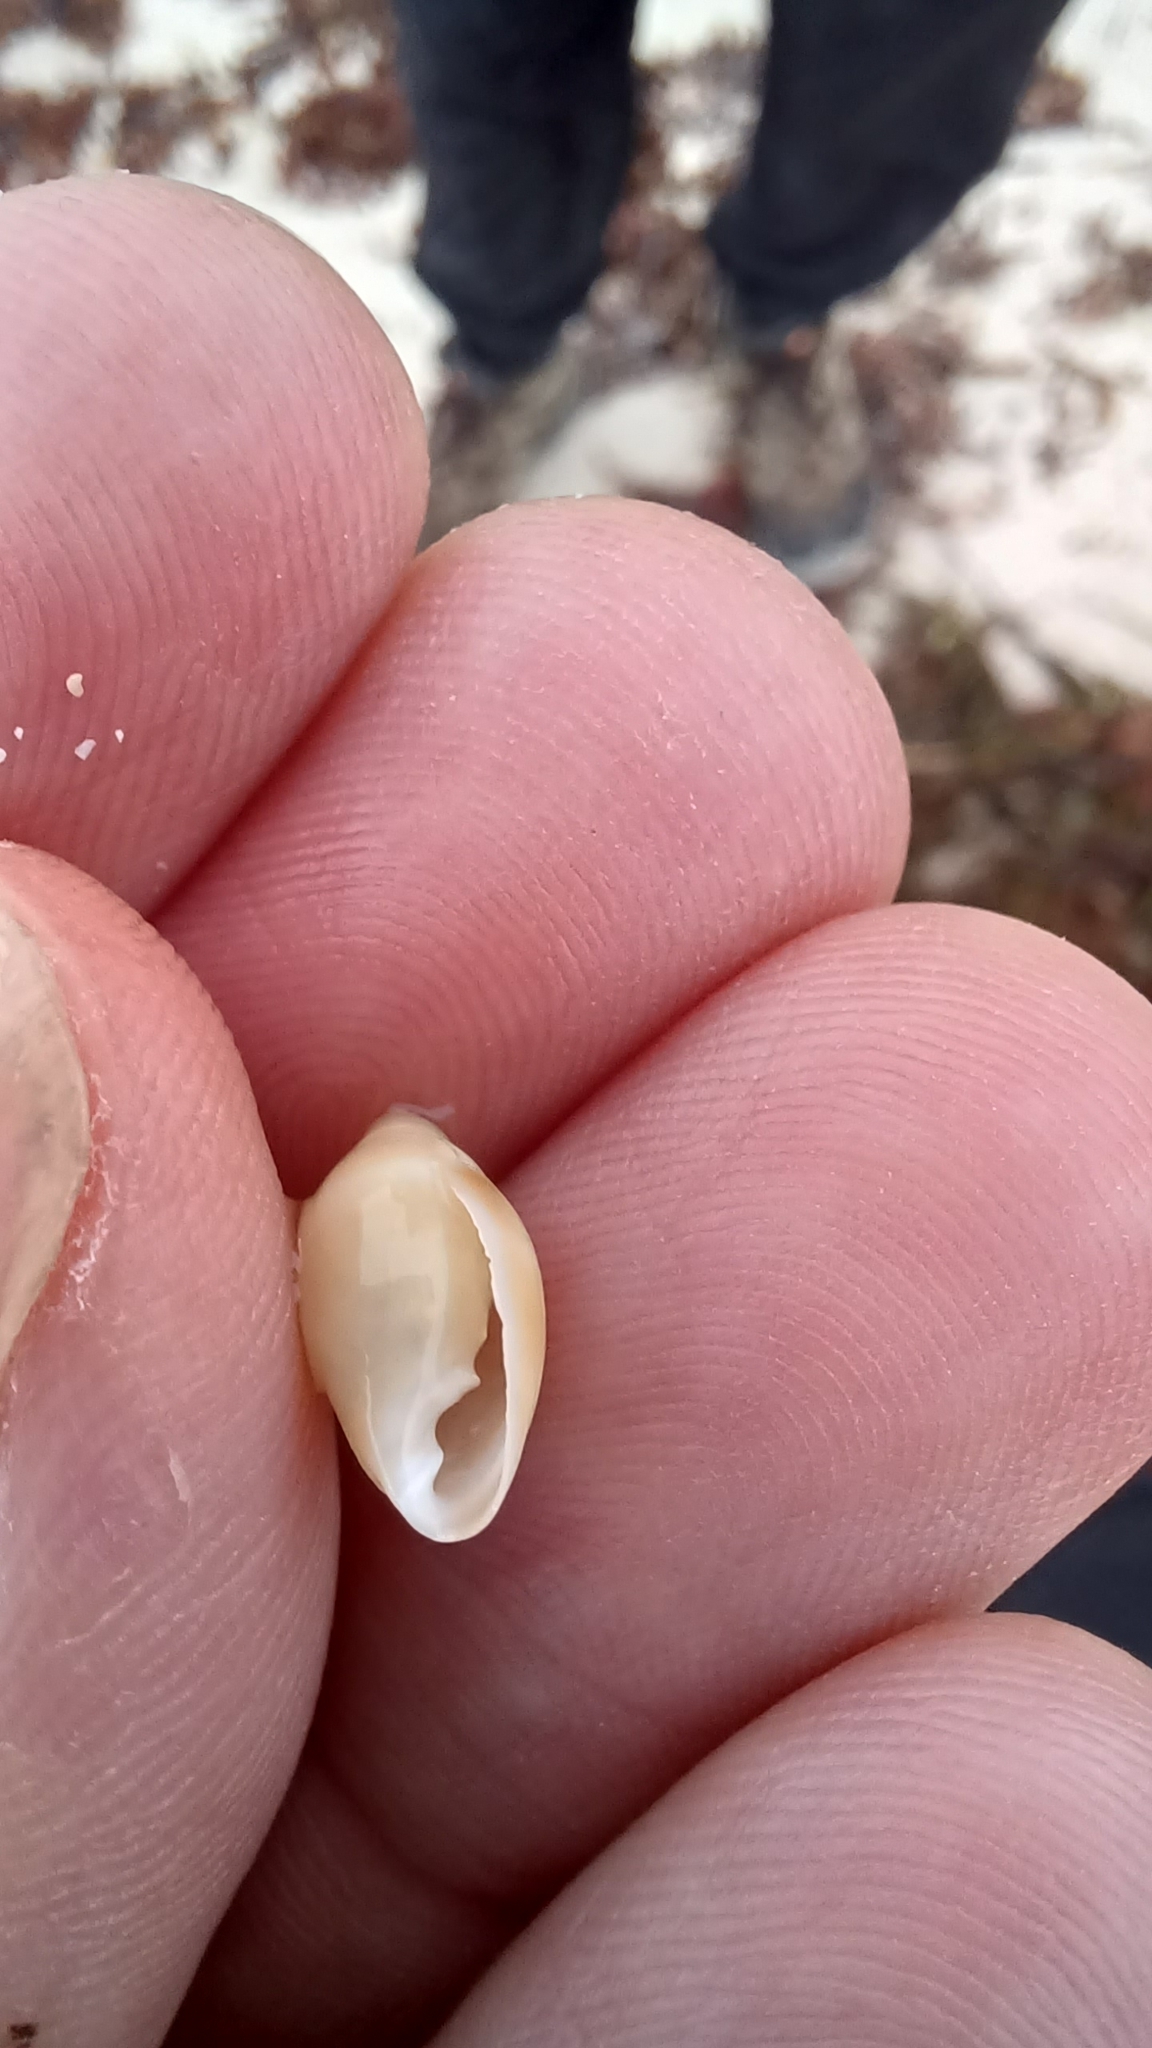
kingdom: Animalia
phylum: Mollusca
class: Gastropoda
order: Ellobiida
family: Ellobiidae
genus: Melampus
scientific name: Melampus flexuosus
